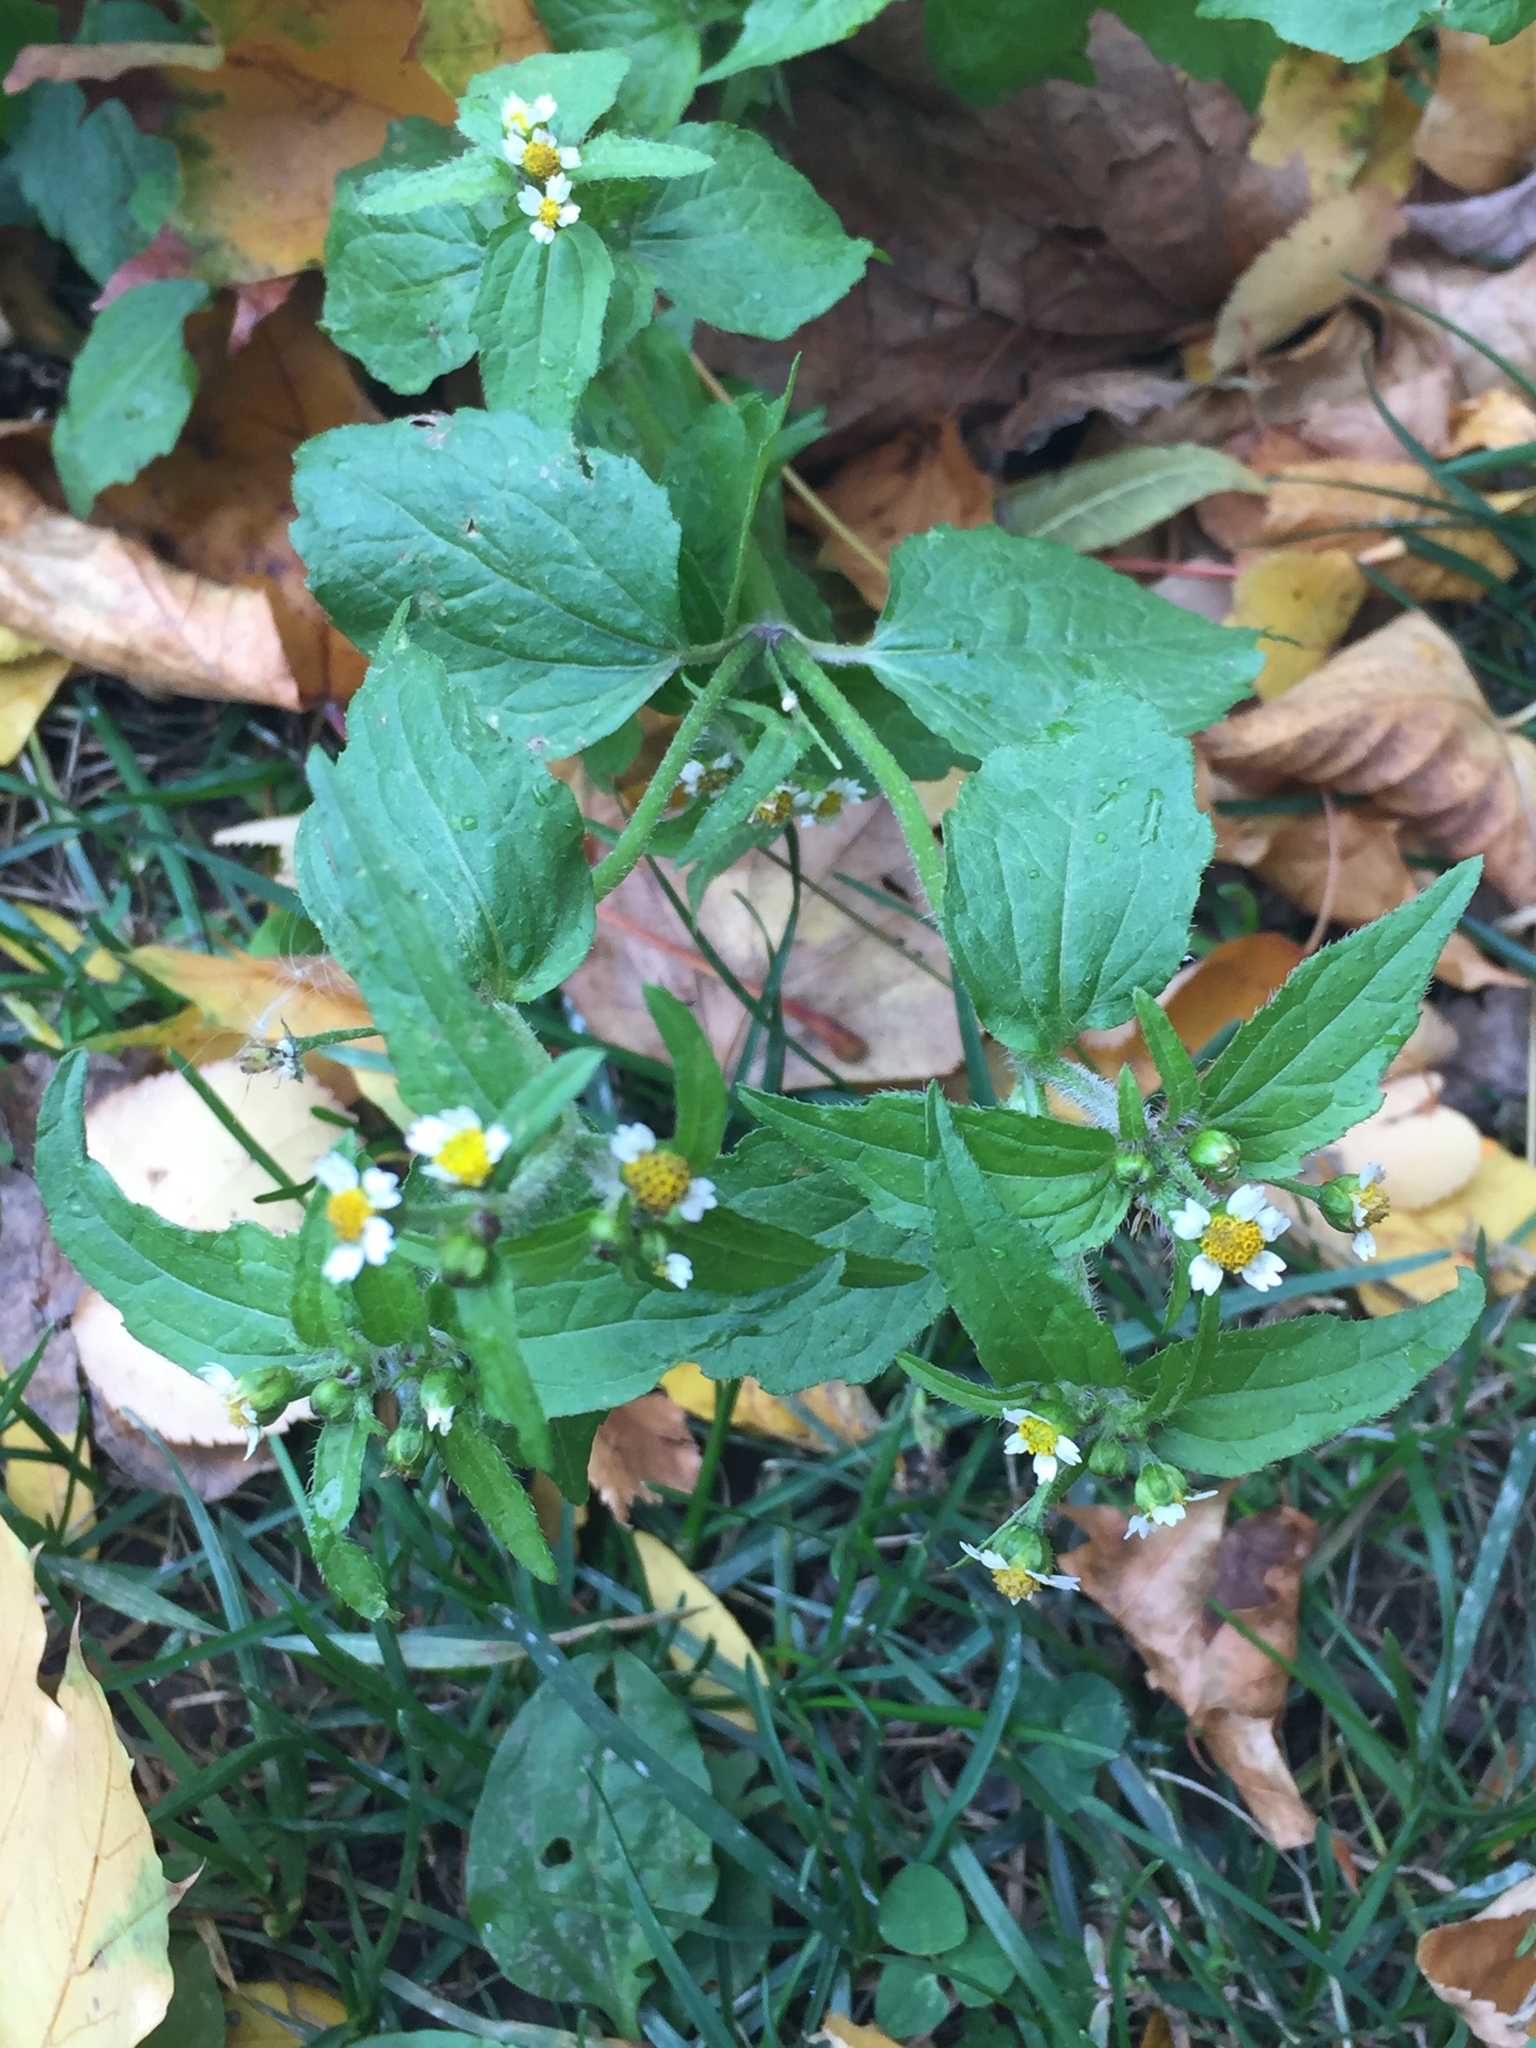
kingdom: Plantae
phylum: Tracheophyta
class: Magnoliopsida
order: Asterales
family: Asteraceae
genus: Galinsoga
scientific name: Galinsoga quadriradiata
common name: Shaggy soldier
